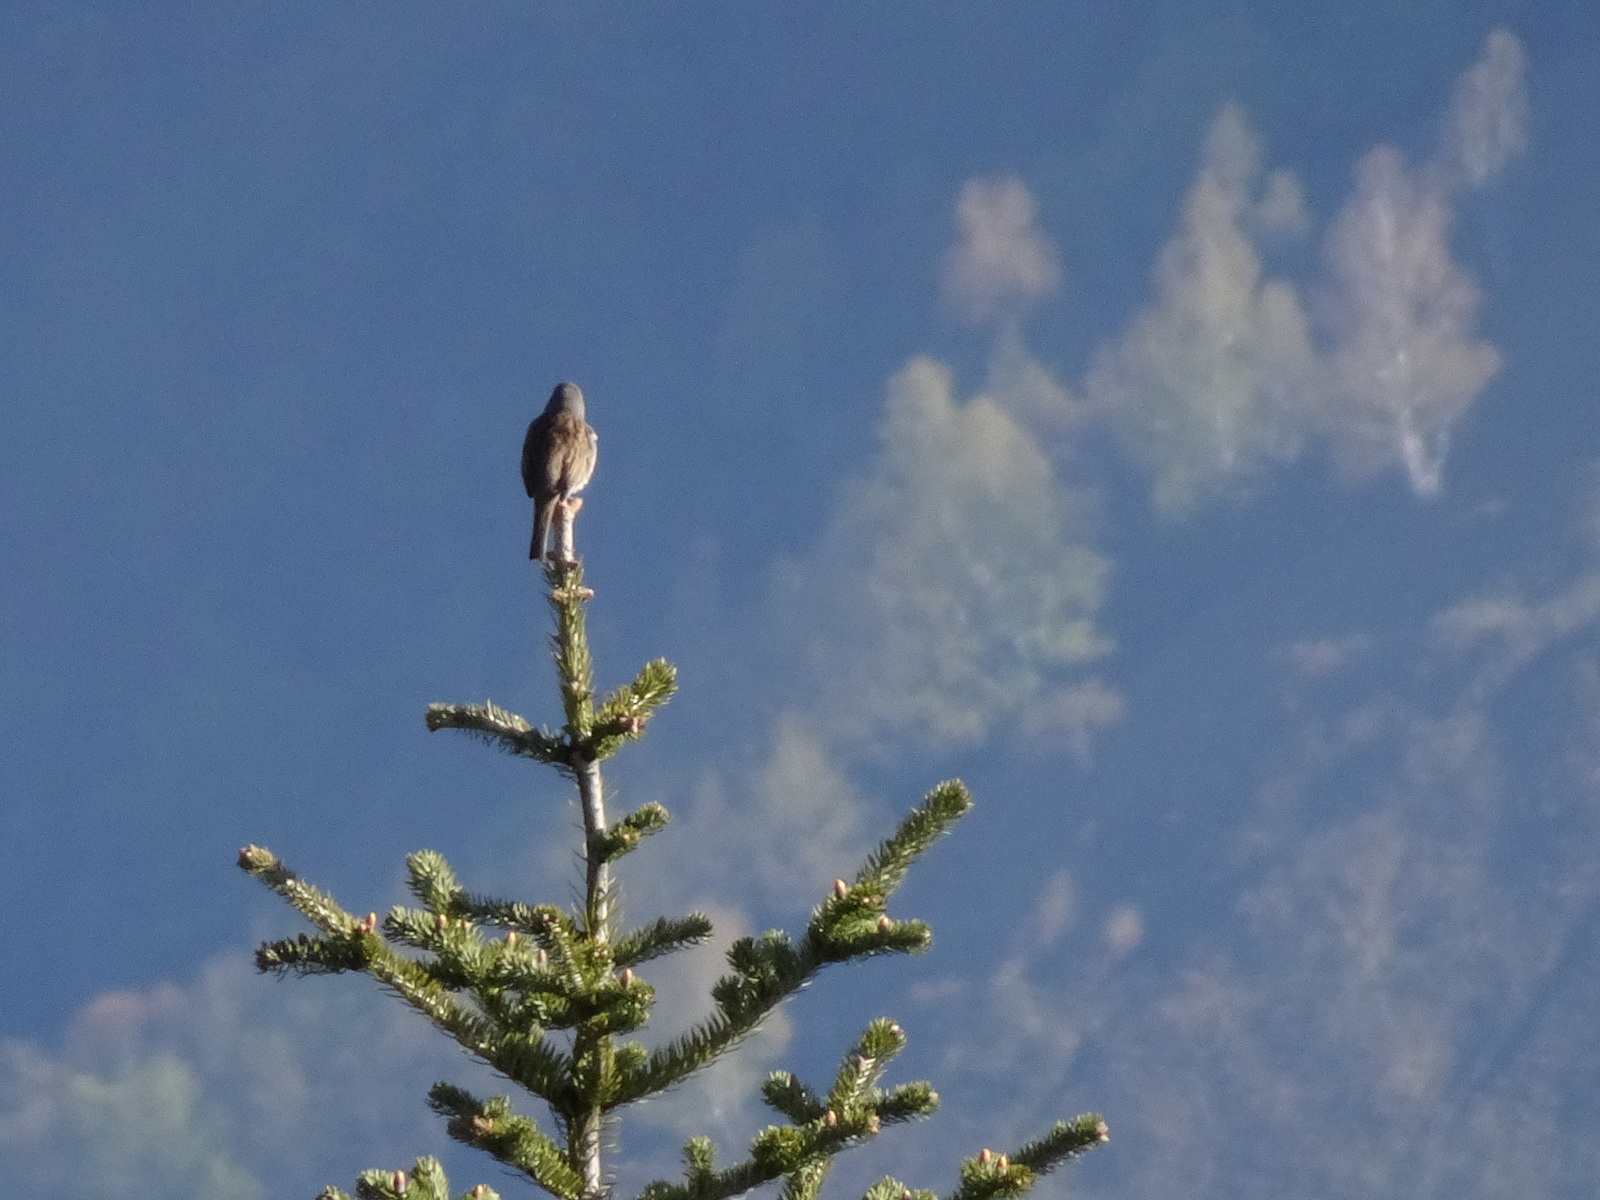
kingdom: Animalia
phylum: Chordata
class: Aves
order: Passeriformes
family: Prunellidae
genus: Prunella
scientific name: Prunella modularis
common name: Dunnock
